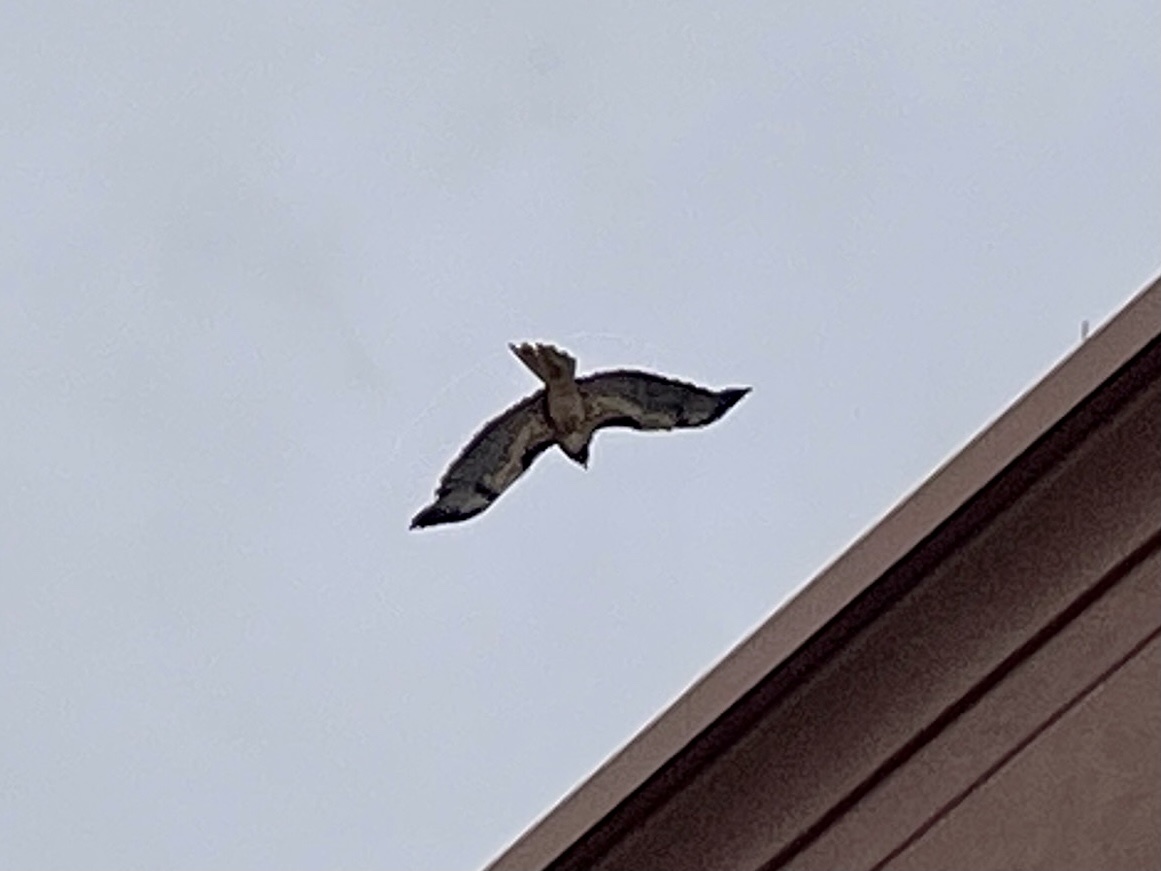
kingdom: Animalia
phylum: Chordata
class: Aves
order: Accipitriformes
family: Accipitridae
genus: Buteo
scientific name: Buteo jamaicensis
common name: Red-tailed hawk
